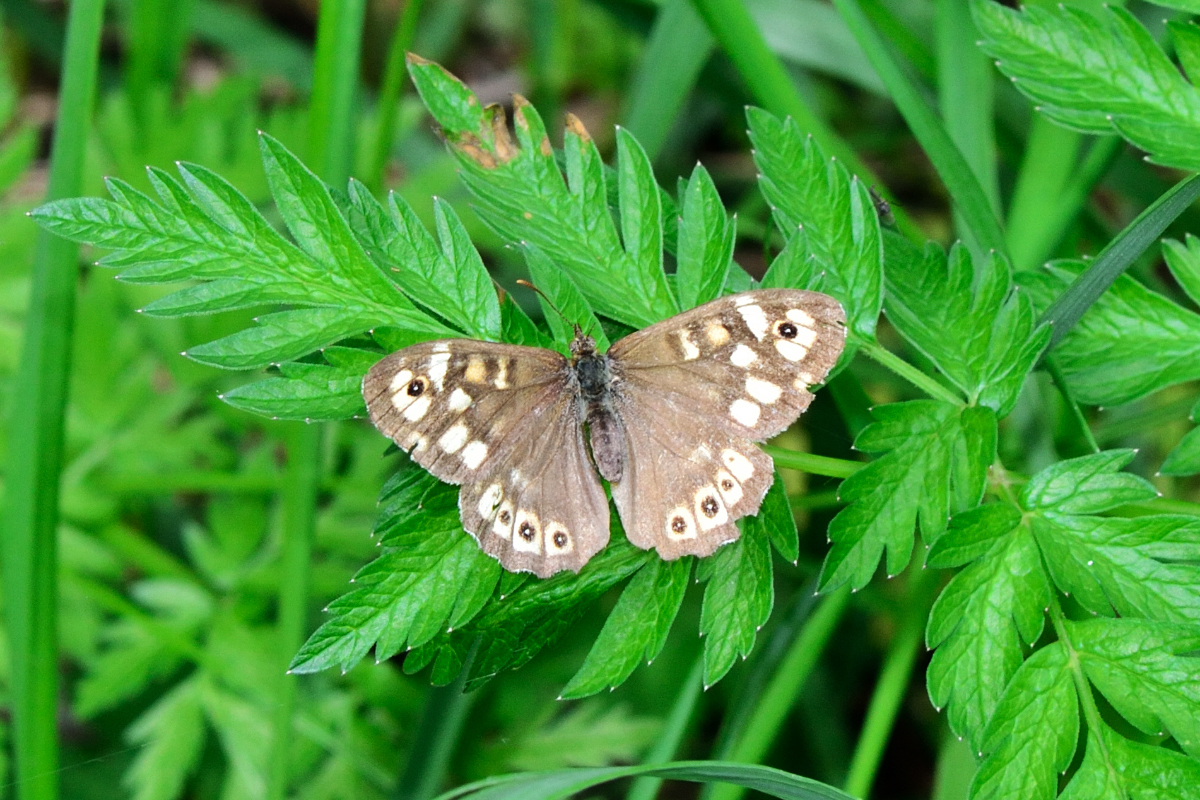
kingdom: Animalia
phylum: Arthropoda
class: Insecta
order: Lepidoptera
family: Nymphalidae
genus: Pararge
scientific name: Pararge aegeria
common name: Speckled wood
